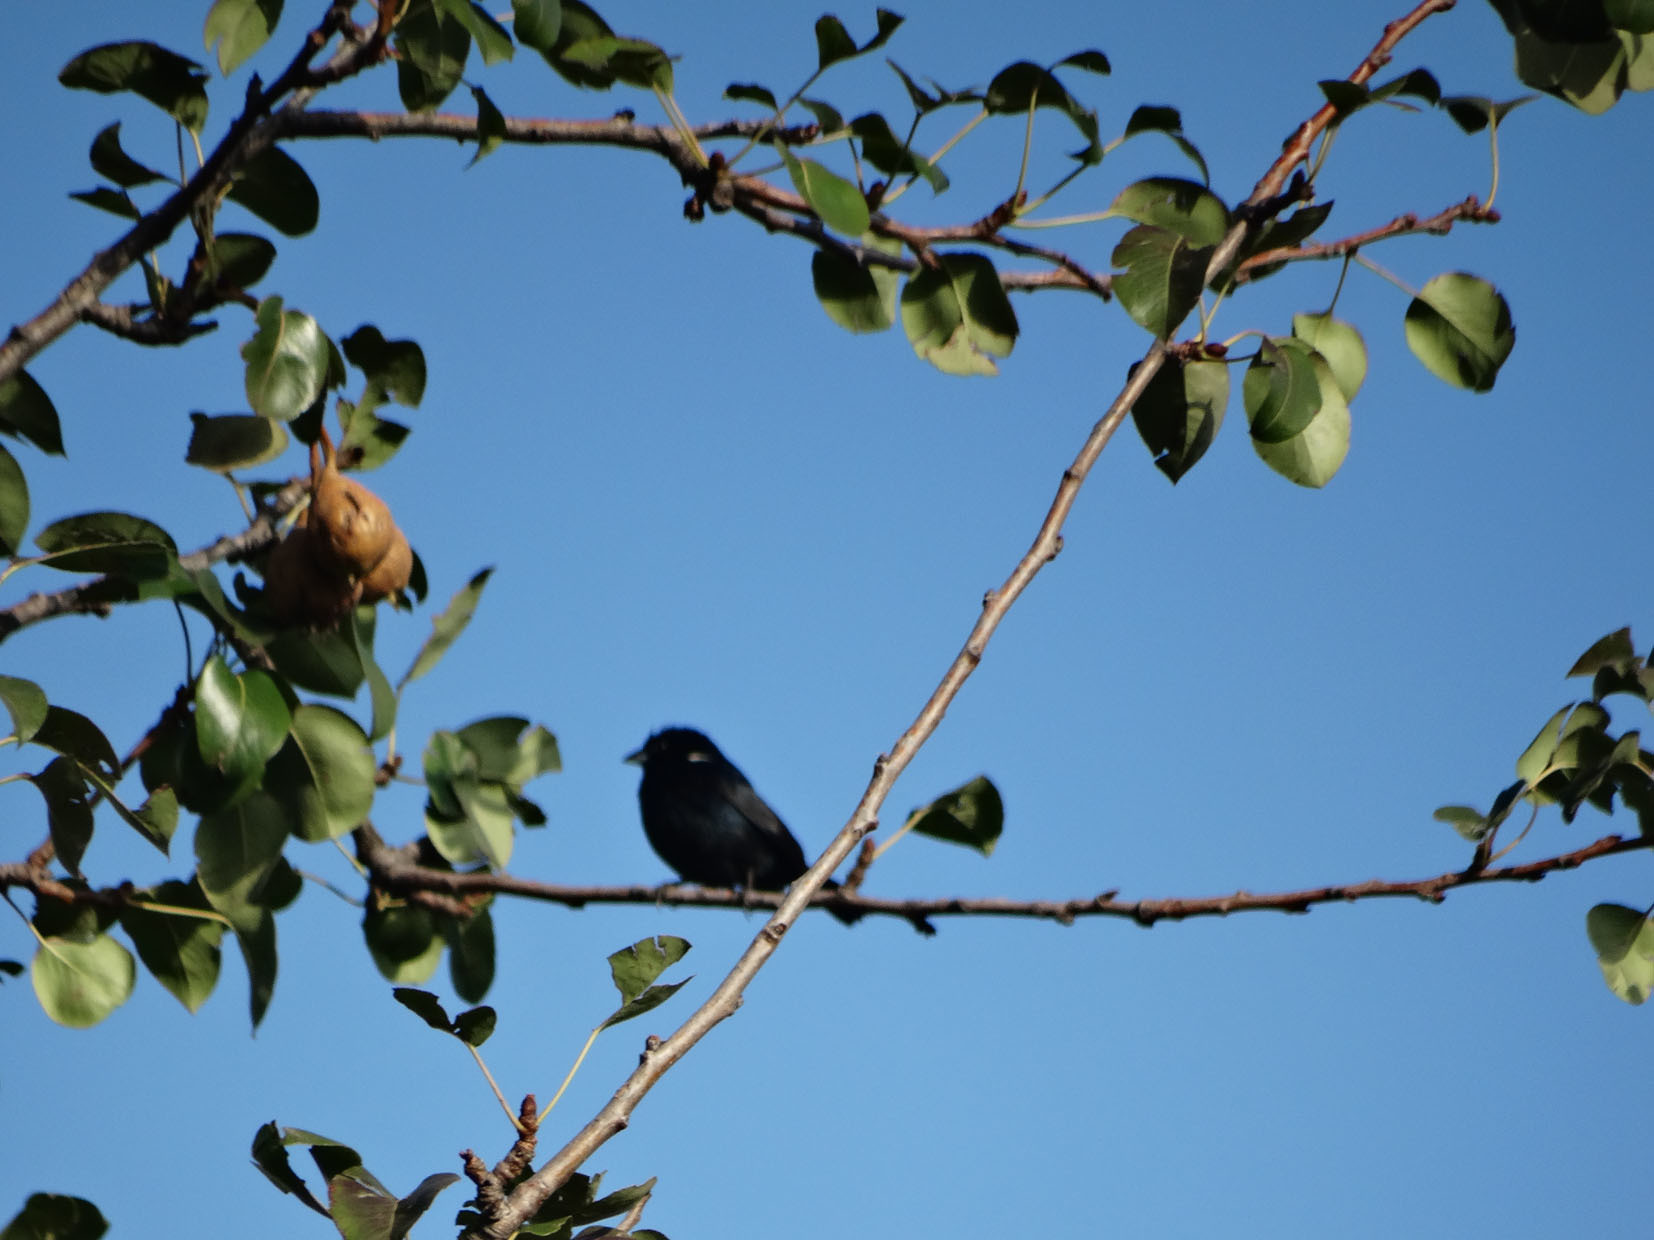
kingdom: Animalia
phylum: Chordata
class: Aves
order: Passeriformes
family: Thraupidae
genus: Volatinia
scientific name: Volatinia jacarina
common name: Blue-black grassquit
